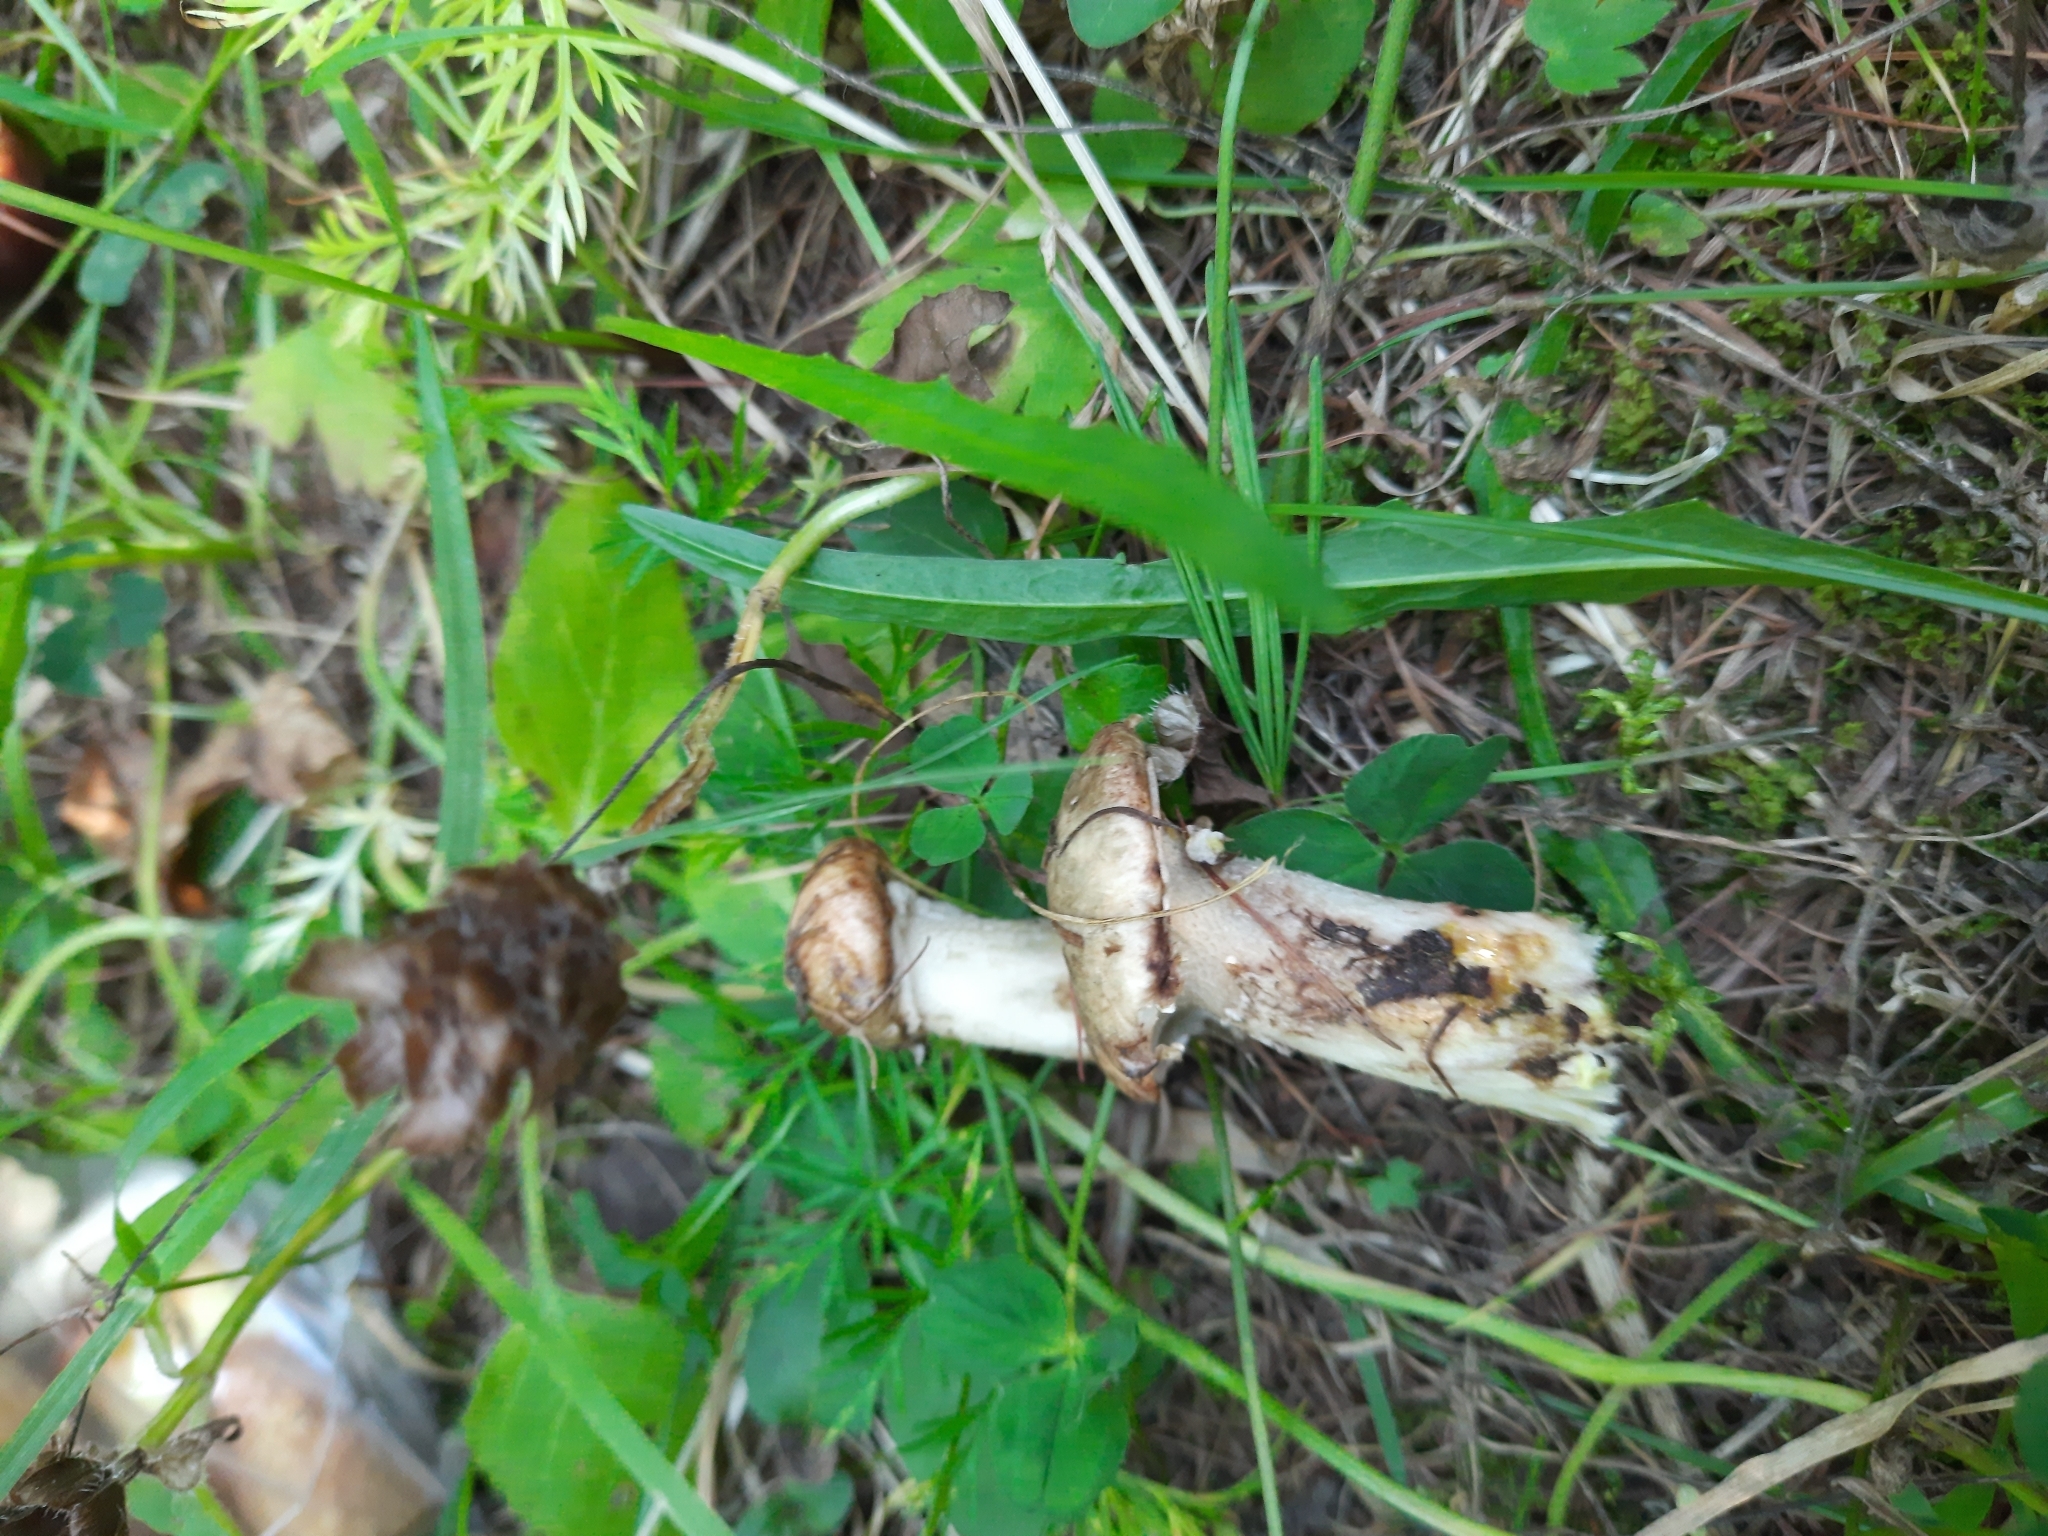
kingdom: Fungi
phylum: Basidiomycota
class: Agaricomycetes
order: Boletales
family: Suillaceae
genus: Suillus
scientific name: Suillus viscidus
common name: Sticky bolete
